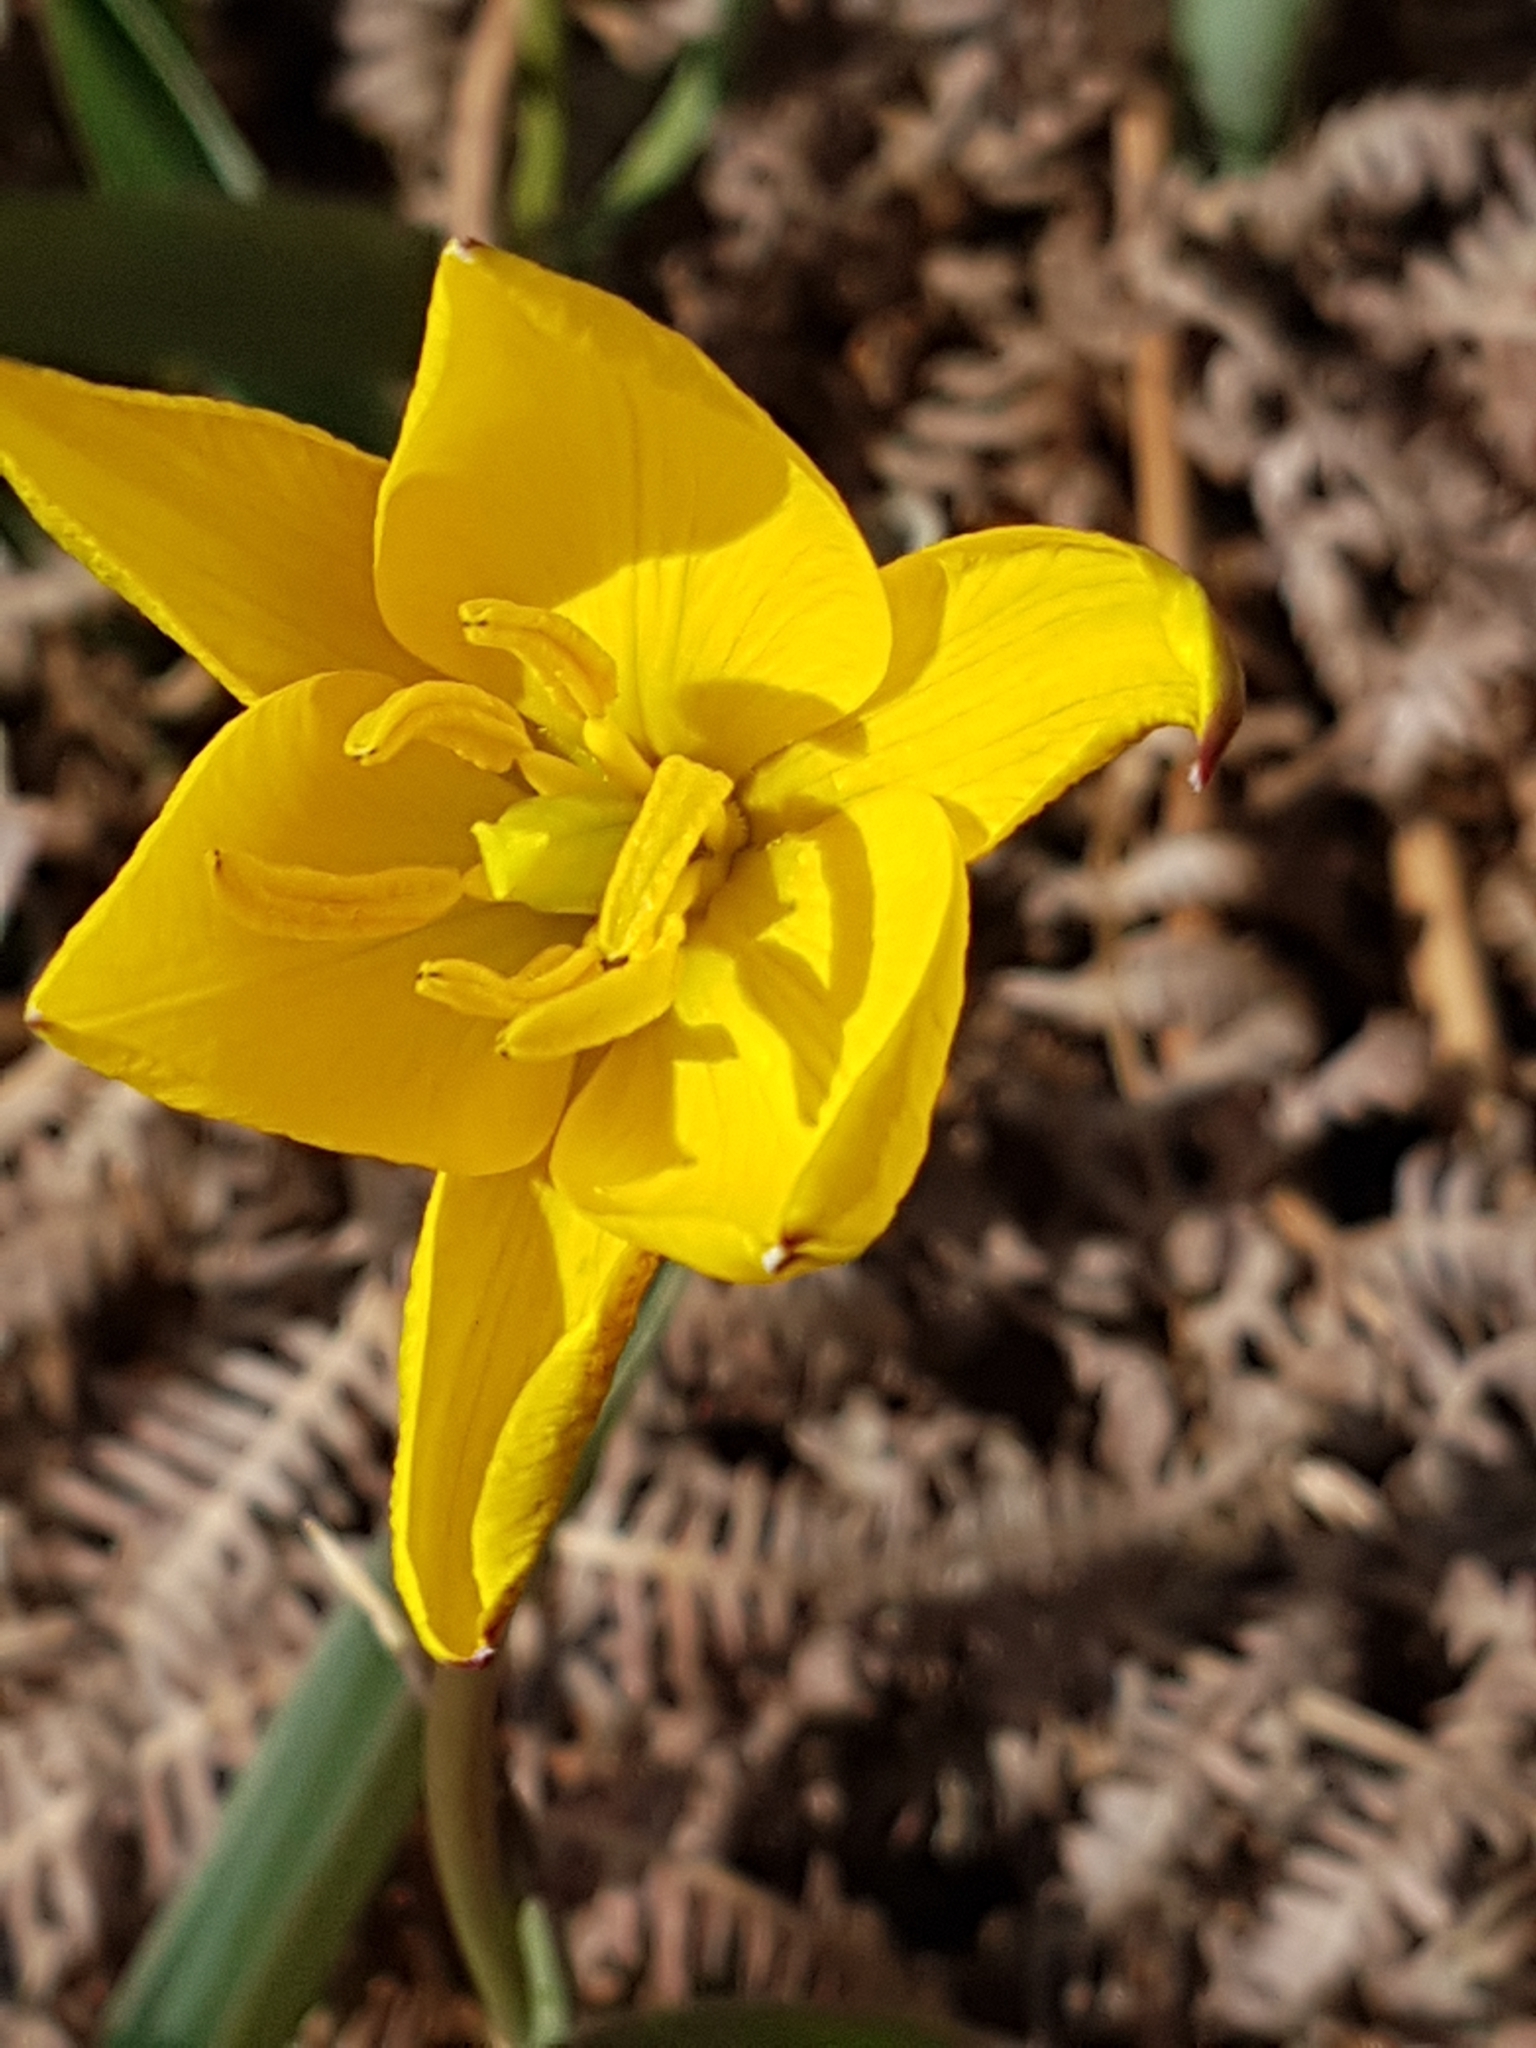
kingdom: Plantae
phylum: Tracheophyta
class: Liliopsida
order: Liliales
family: Liliaceae
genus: Tulipa
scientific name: Tulipa sylvestris
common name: Wild tulip
